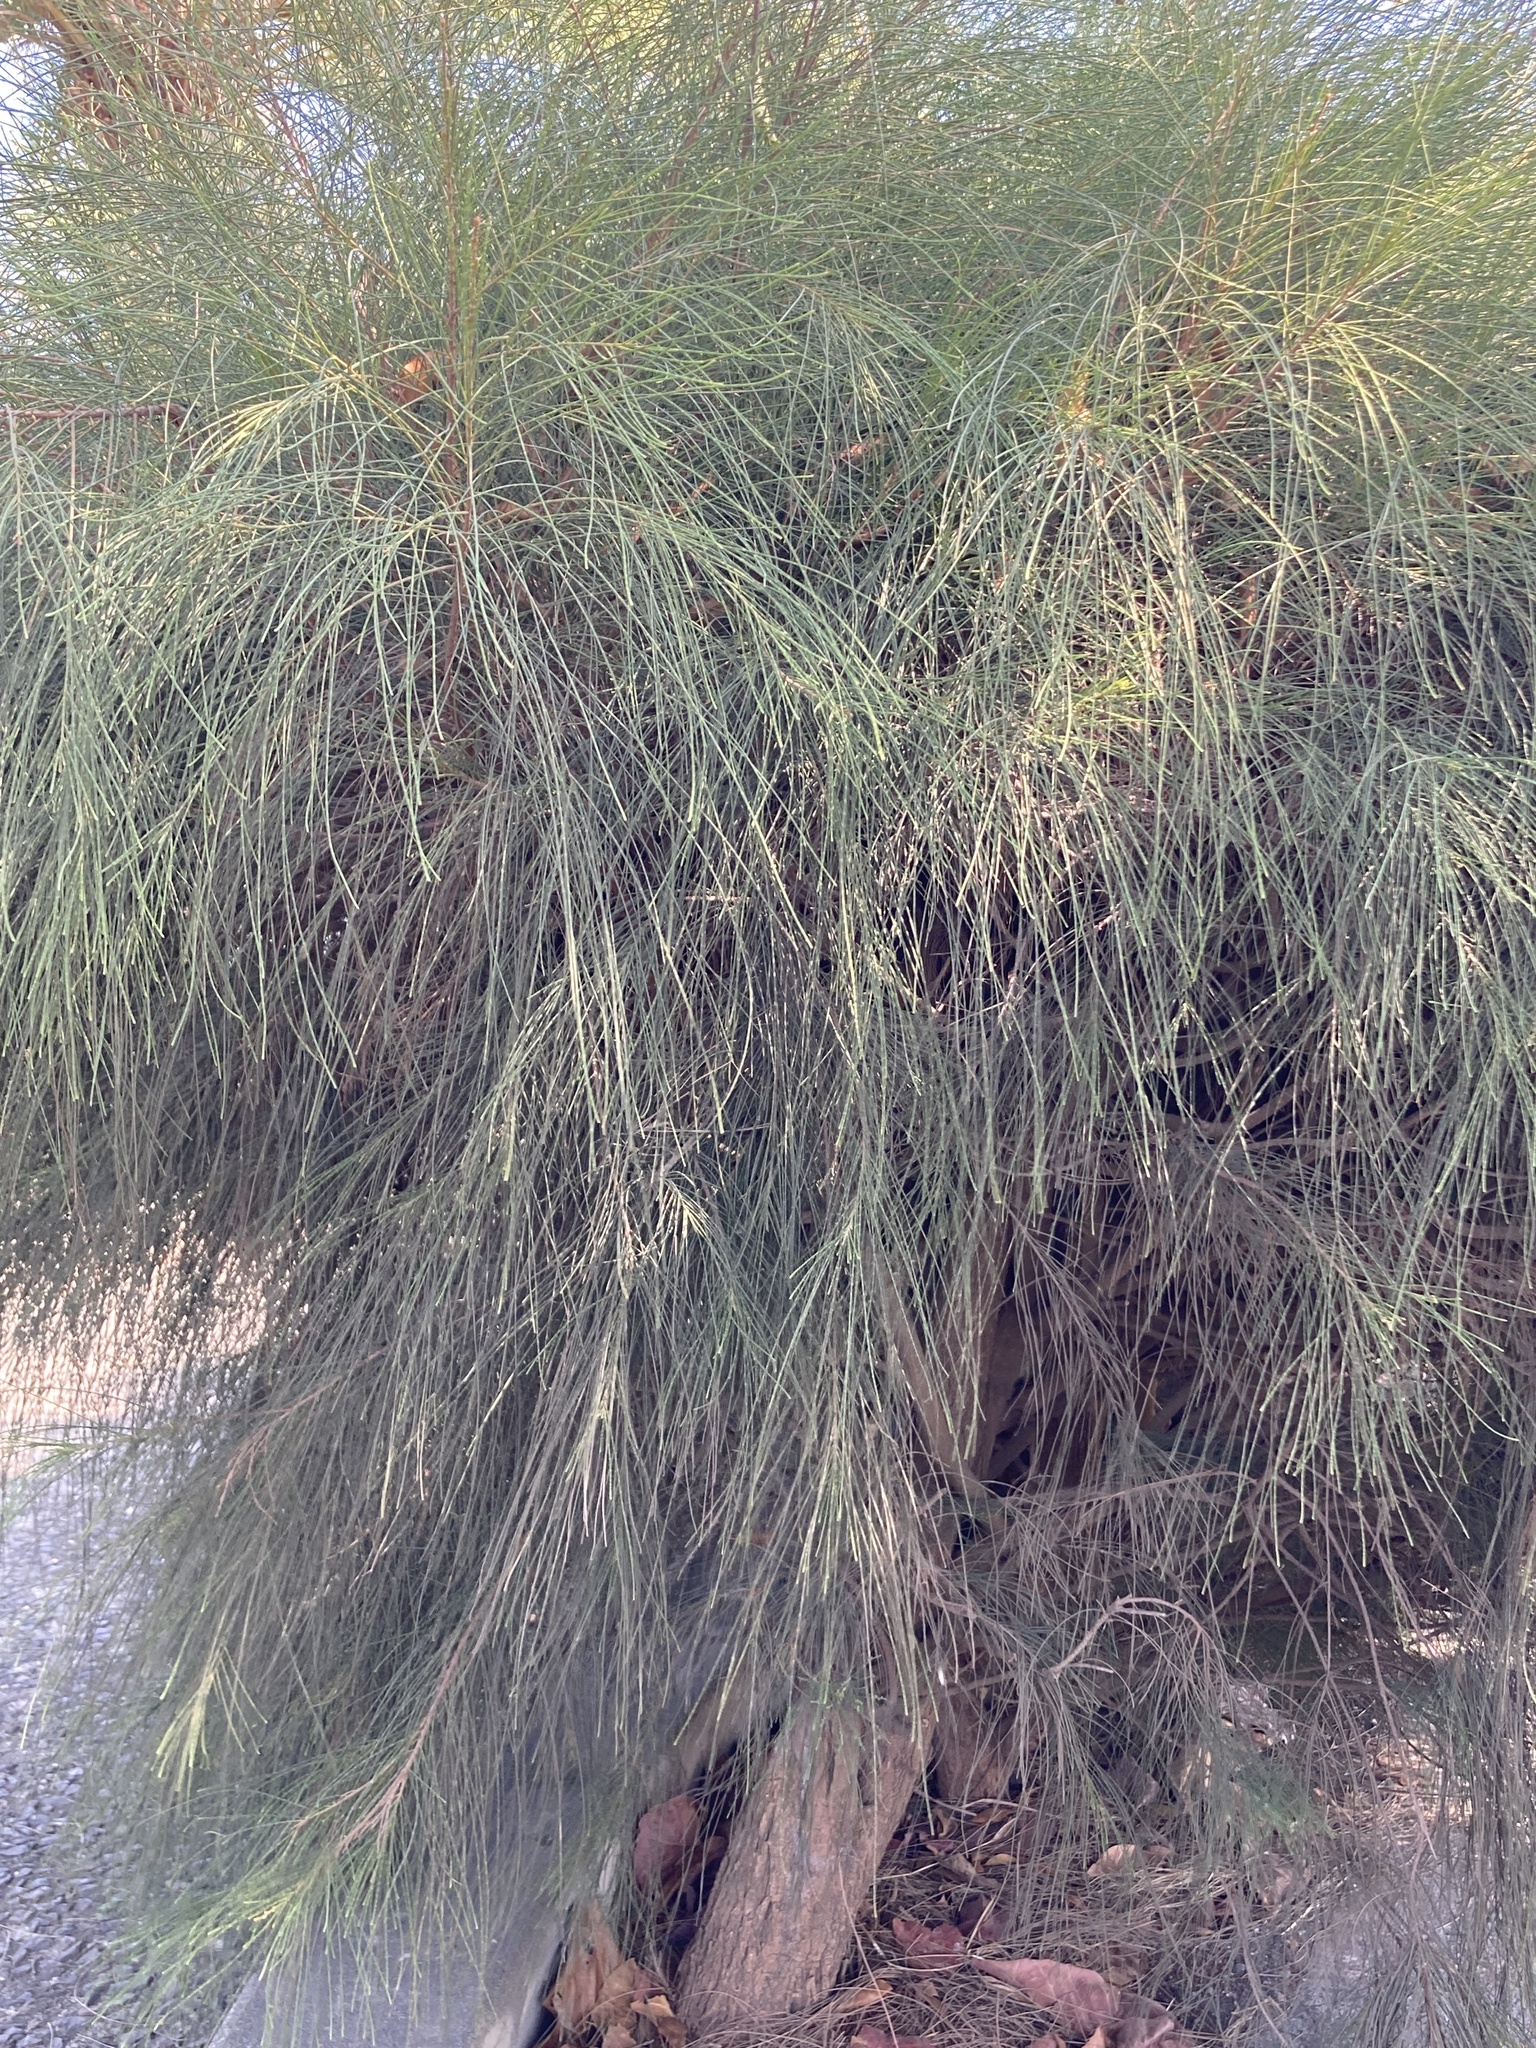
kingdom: Plantae
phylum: Tracheophyta
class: Magnoliopsida
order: Fagales
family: Casuarinaceae
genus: Casuarina
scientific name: Casuarina equisetifolia
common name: Beach sheoak
